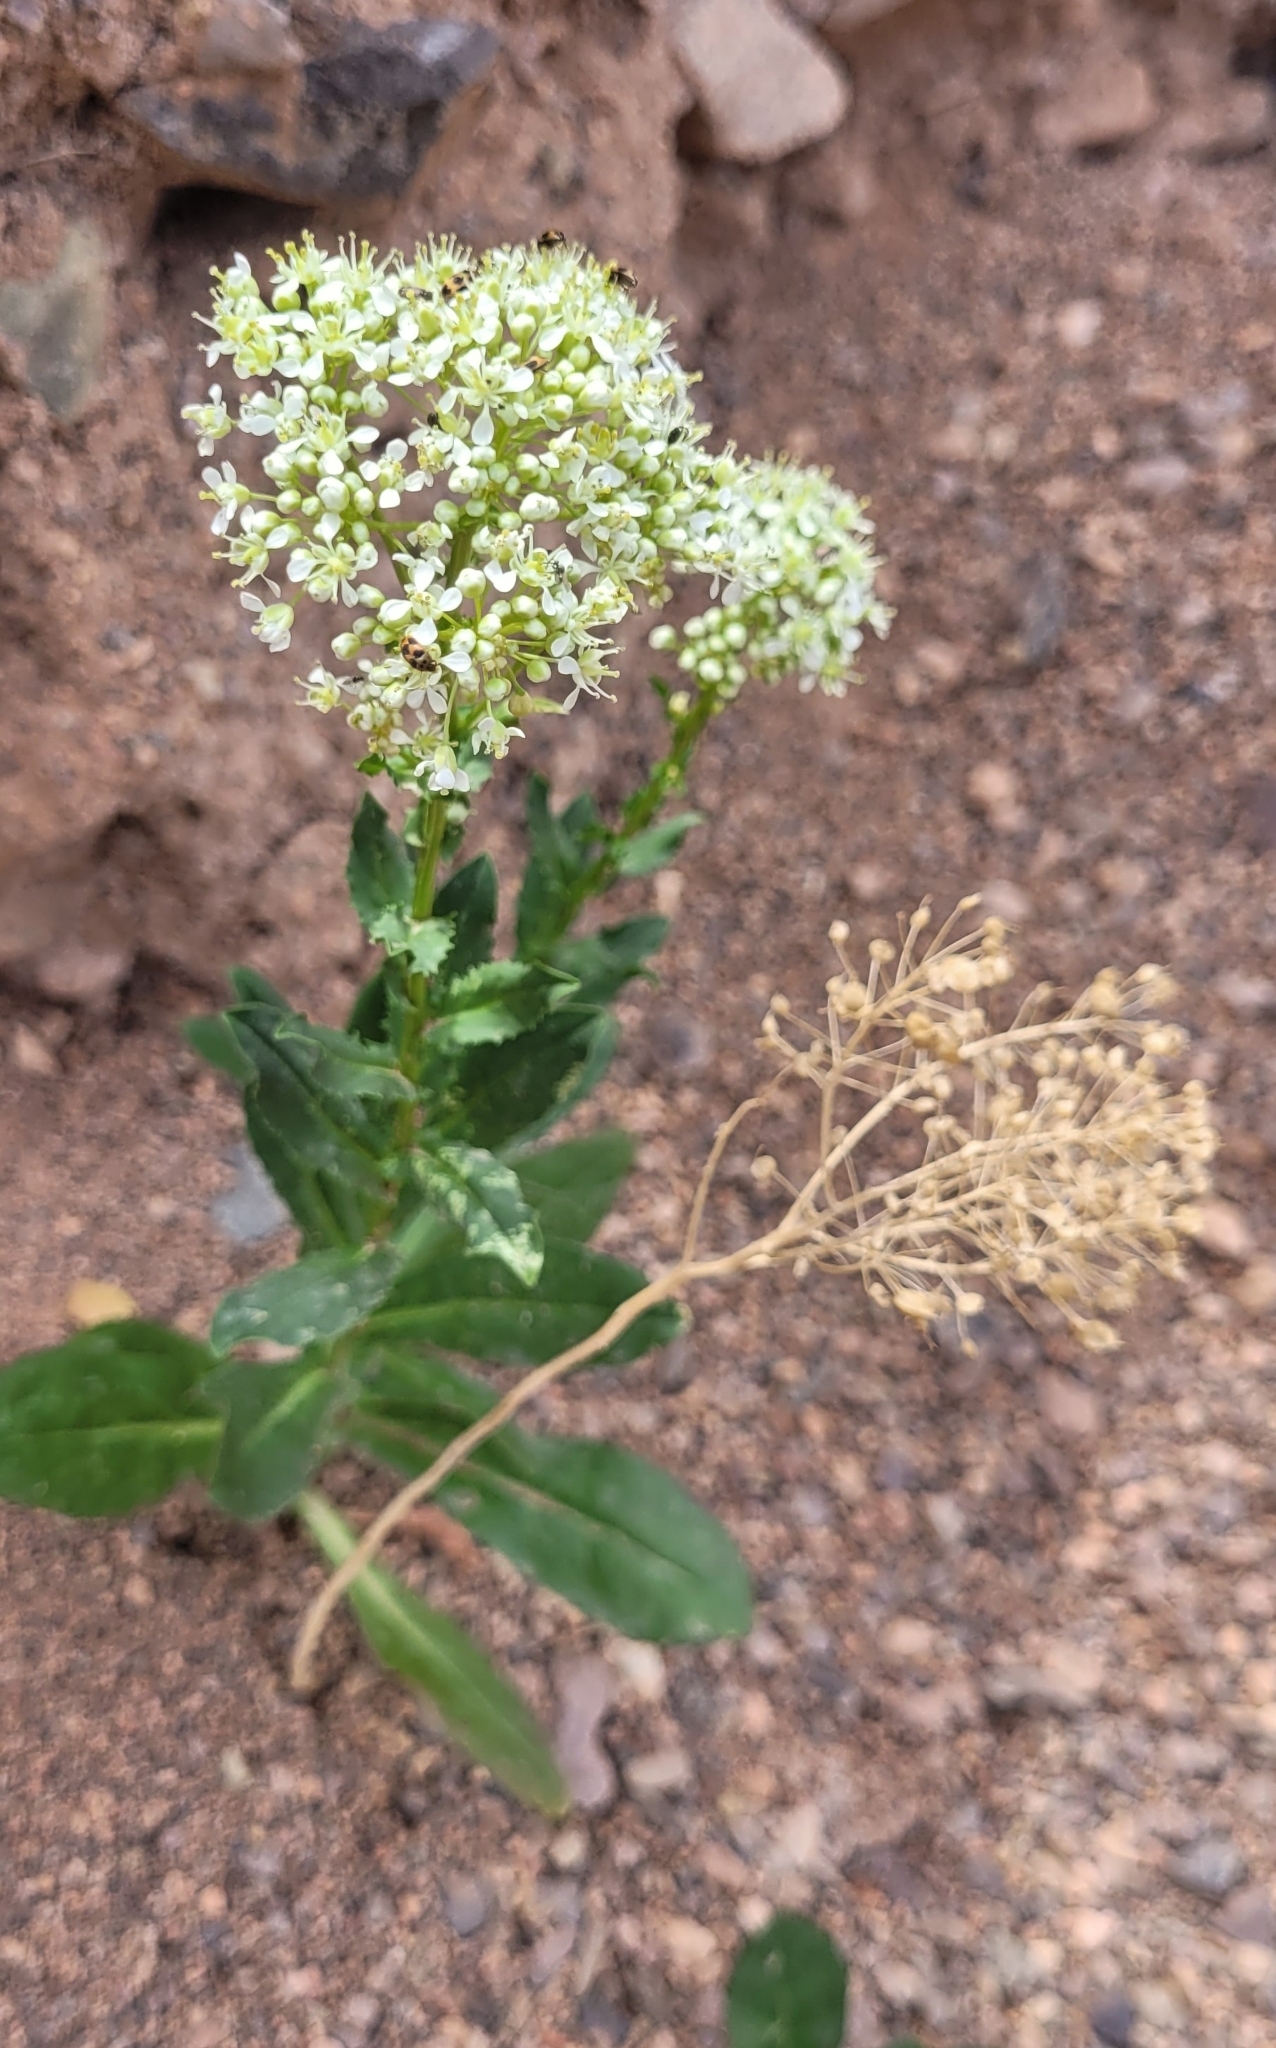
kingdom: Plantae
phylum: Tracheophyta
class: Magnoliopsida
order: Brassicales
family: Brassicaceae
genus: Lepidium
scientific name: Lepidium chalepense
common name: Orbicular whitetop
